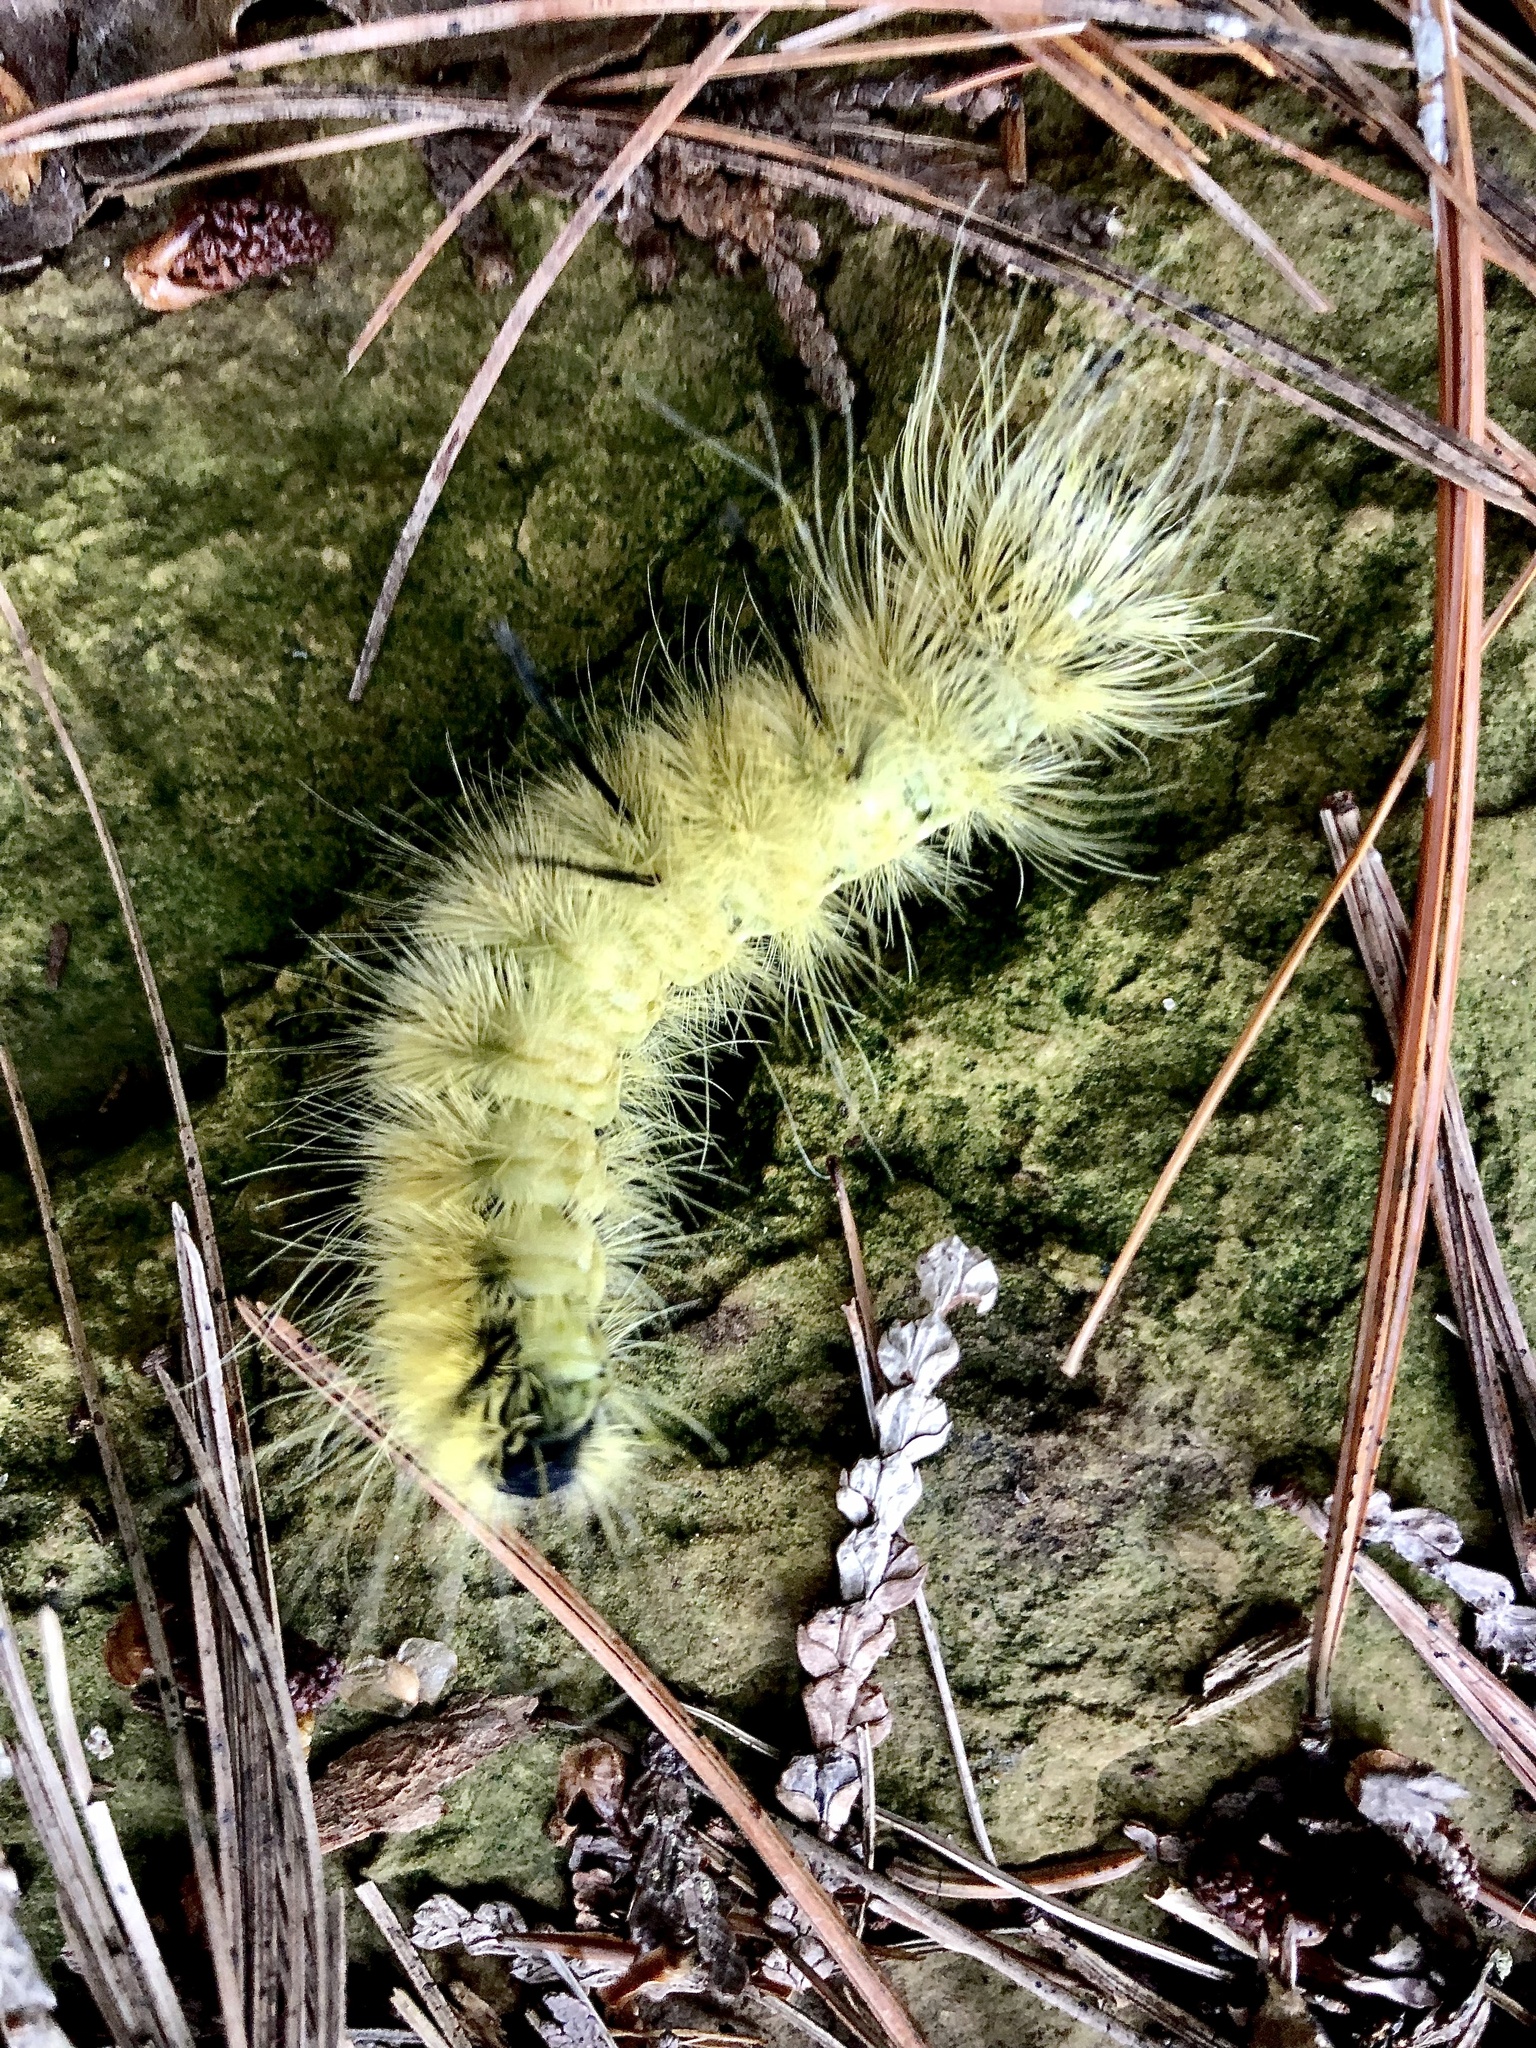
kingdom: Animalia
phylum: Arthropoda
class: Insecta
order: Lepidoptera
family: Noctuidae
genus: Acronicta
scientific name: Acronicta americana
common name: American dagger
